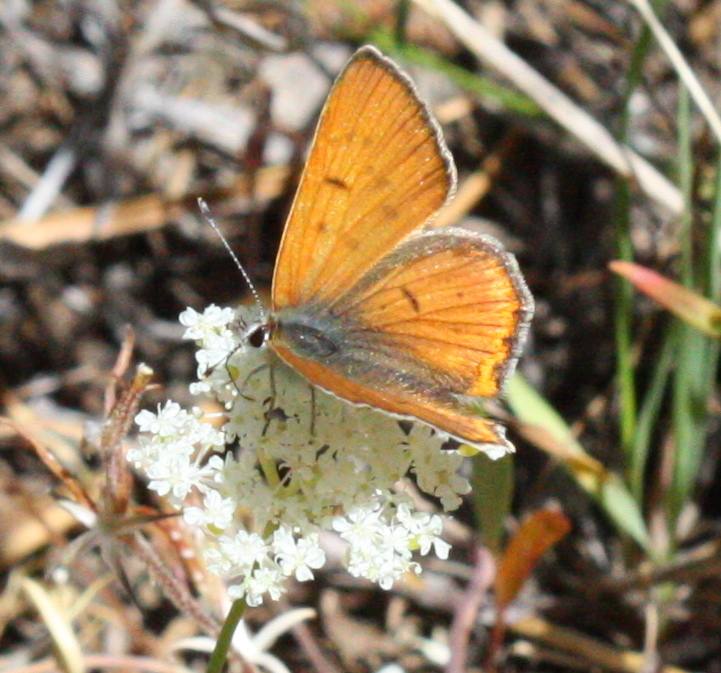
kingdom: Animalia
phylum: Arthropoda
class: Insecta
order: Lepidoptera
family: Lycaenidae
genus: Lycaena
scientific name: Lycaena
